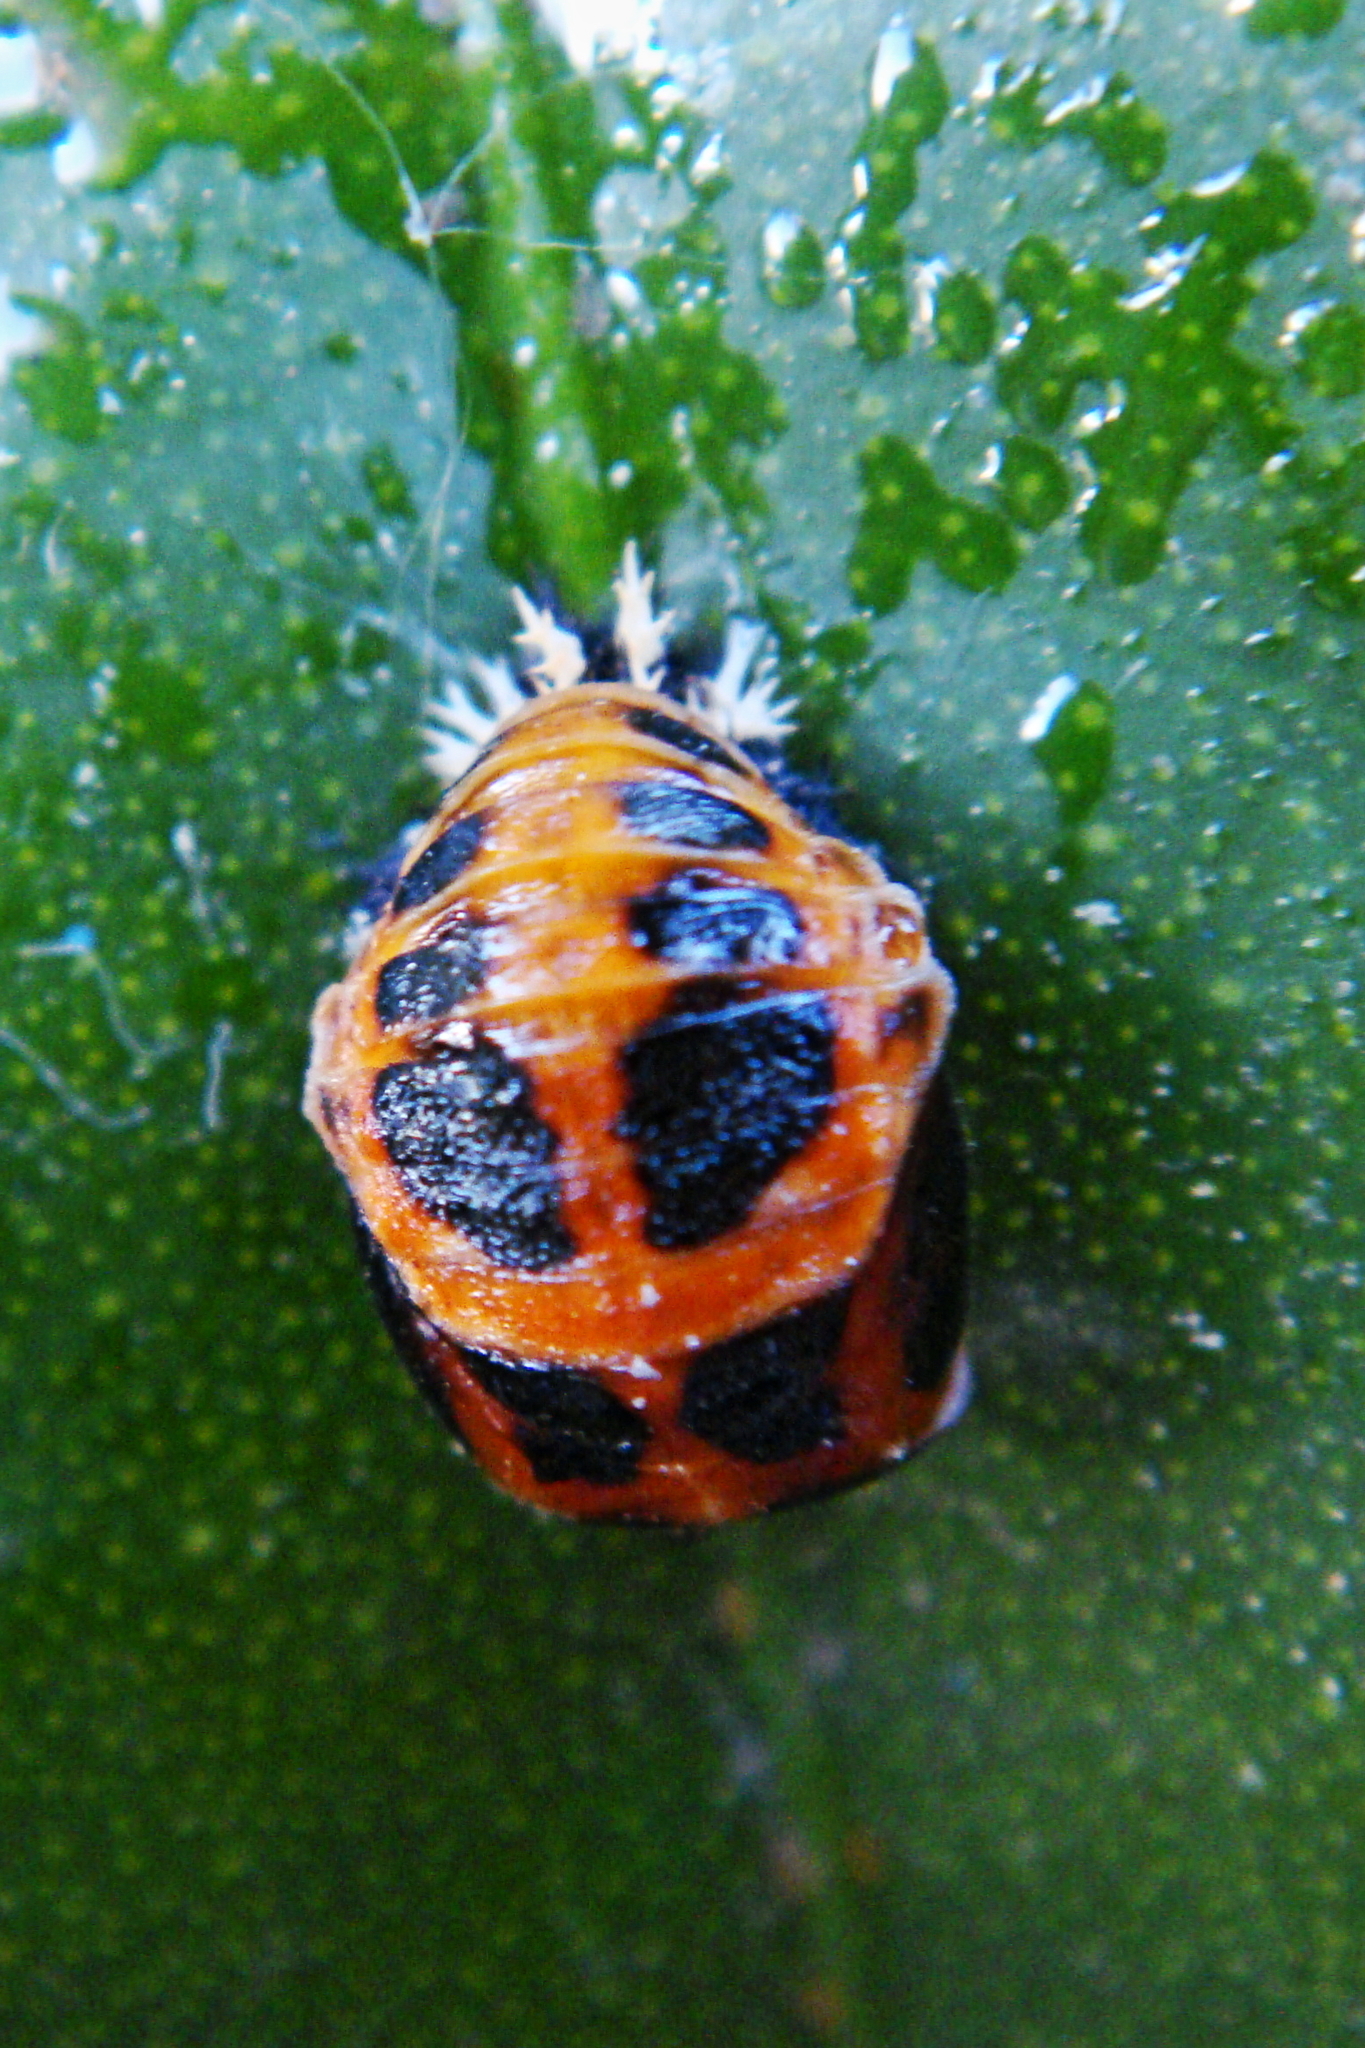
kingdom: Animalia
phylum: Arthropoda
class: Insecta
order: Coleoptera
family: Coccinellidae
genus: Harmonia
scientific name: Harmonia axyridis
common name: Harlequin ladybird
